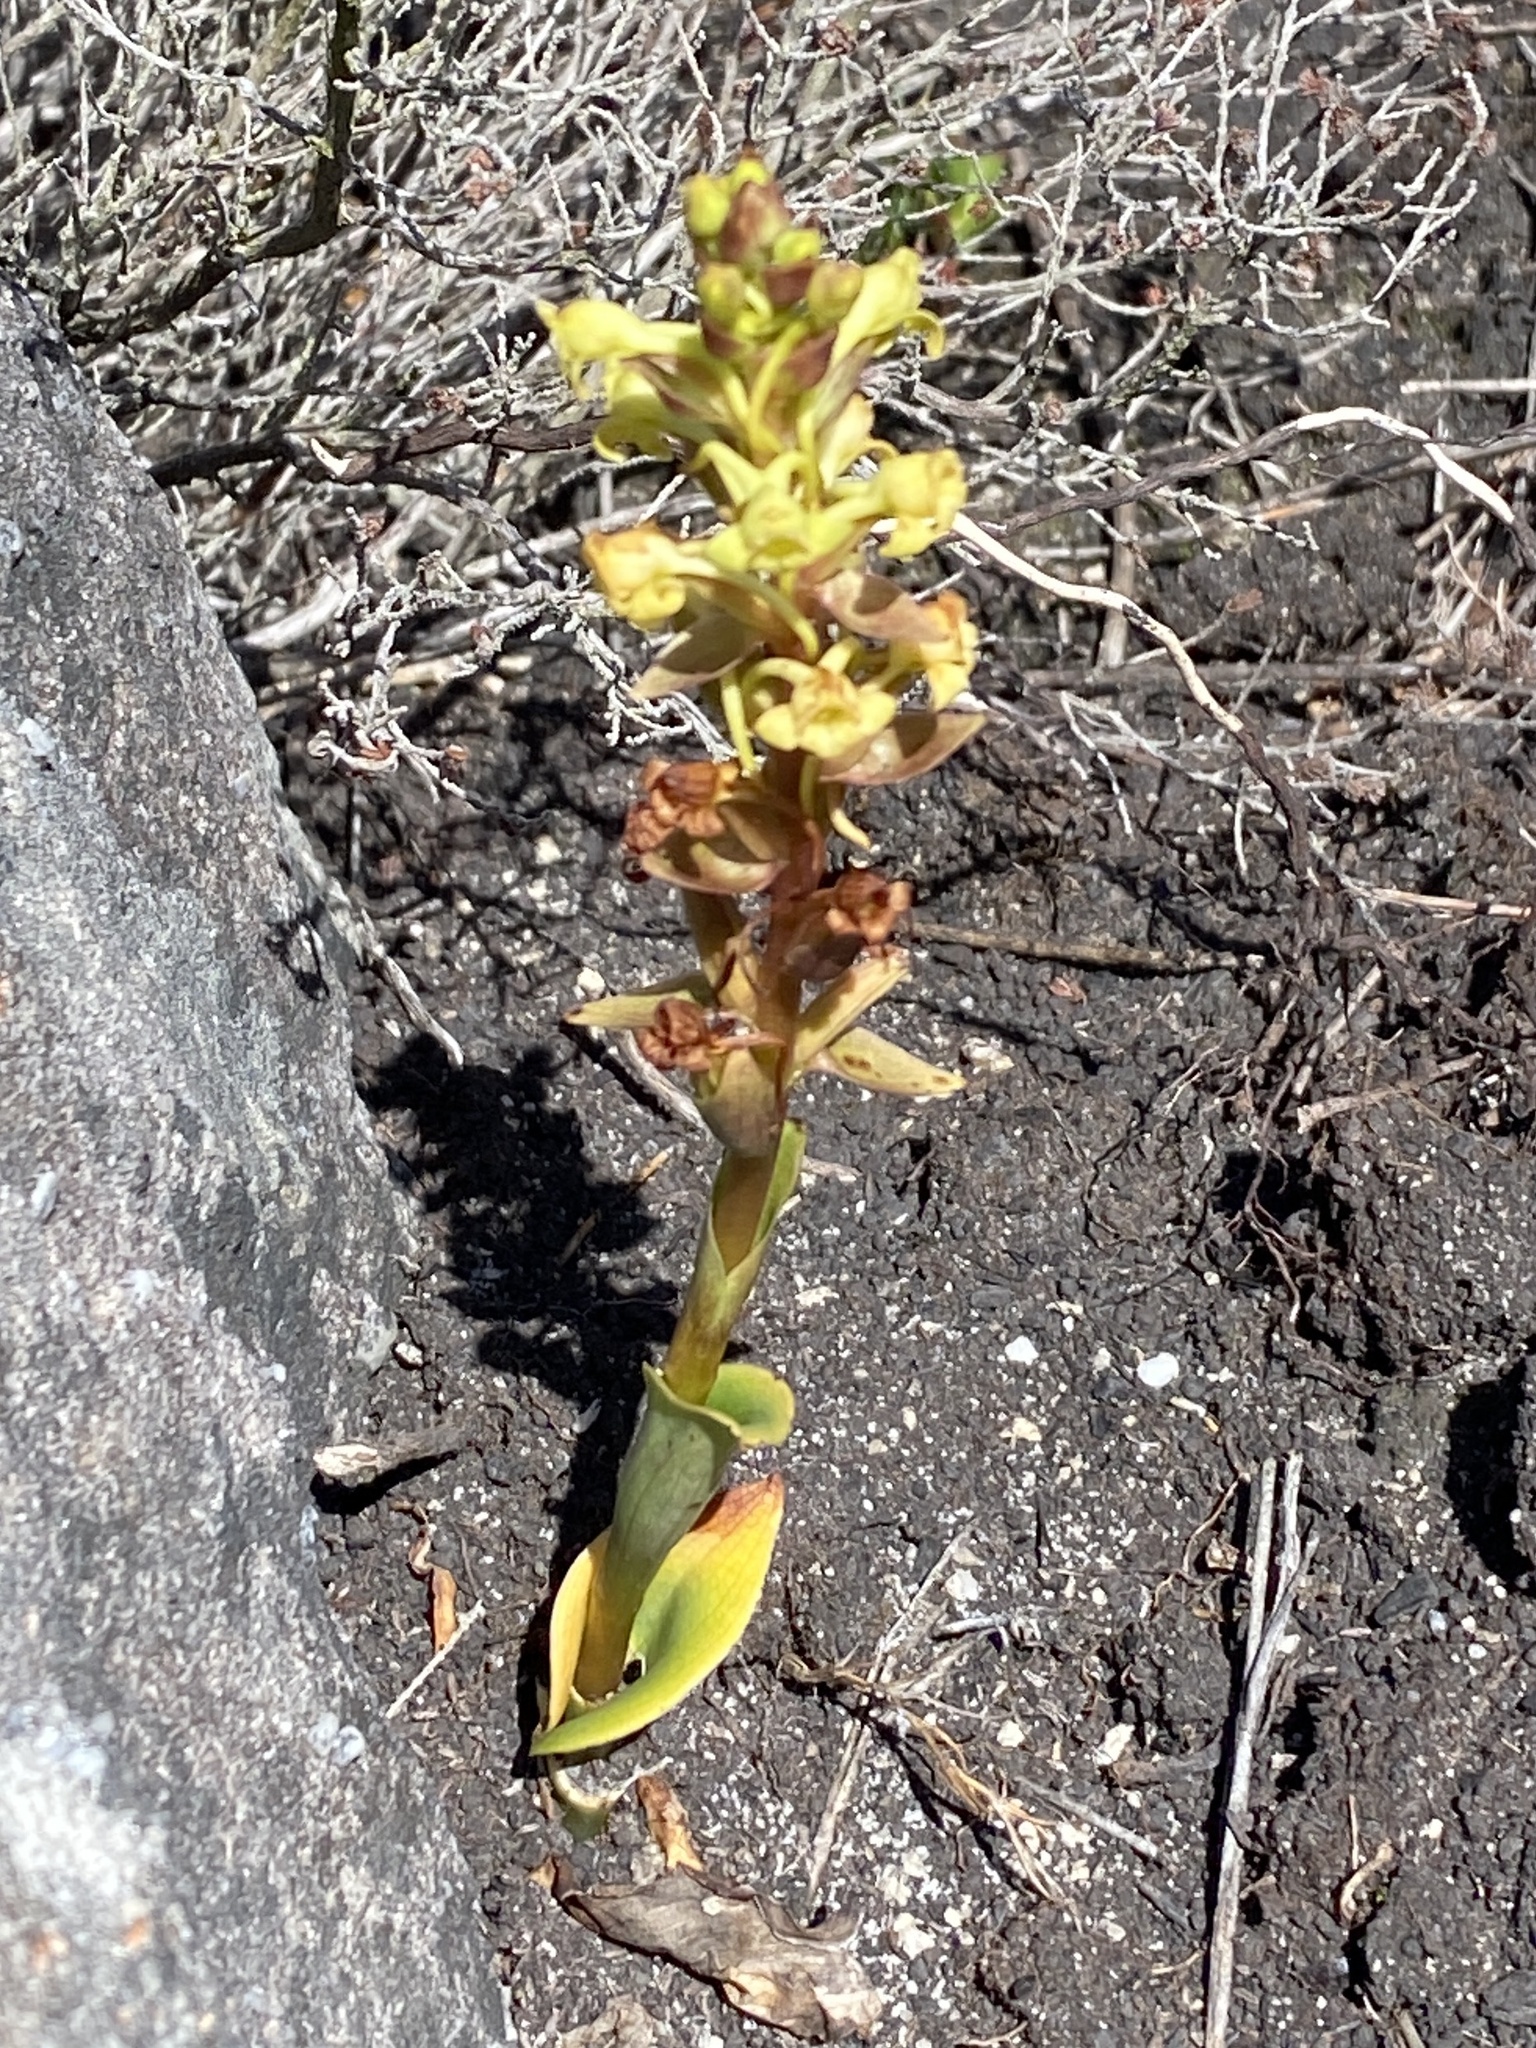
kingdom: Plantae
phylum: Tracheophyta
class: Liliopsida
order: Asparagales
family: Orchidaceae
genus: Satyrium
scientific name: Satyrium humile
